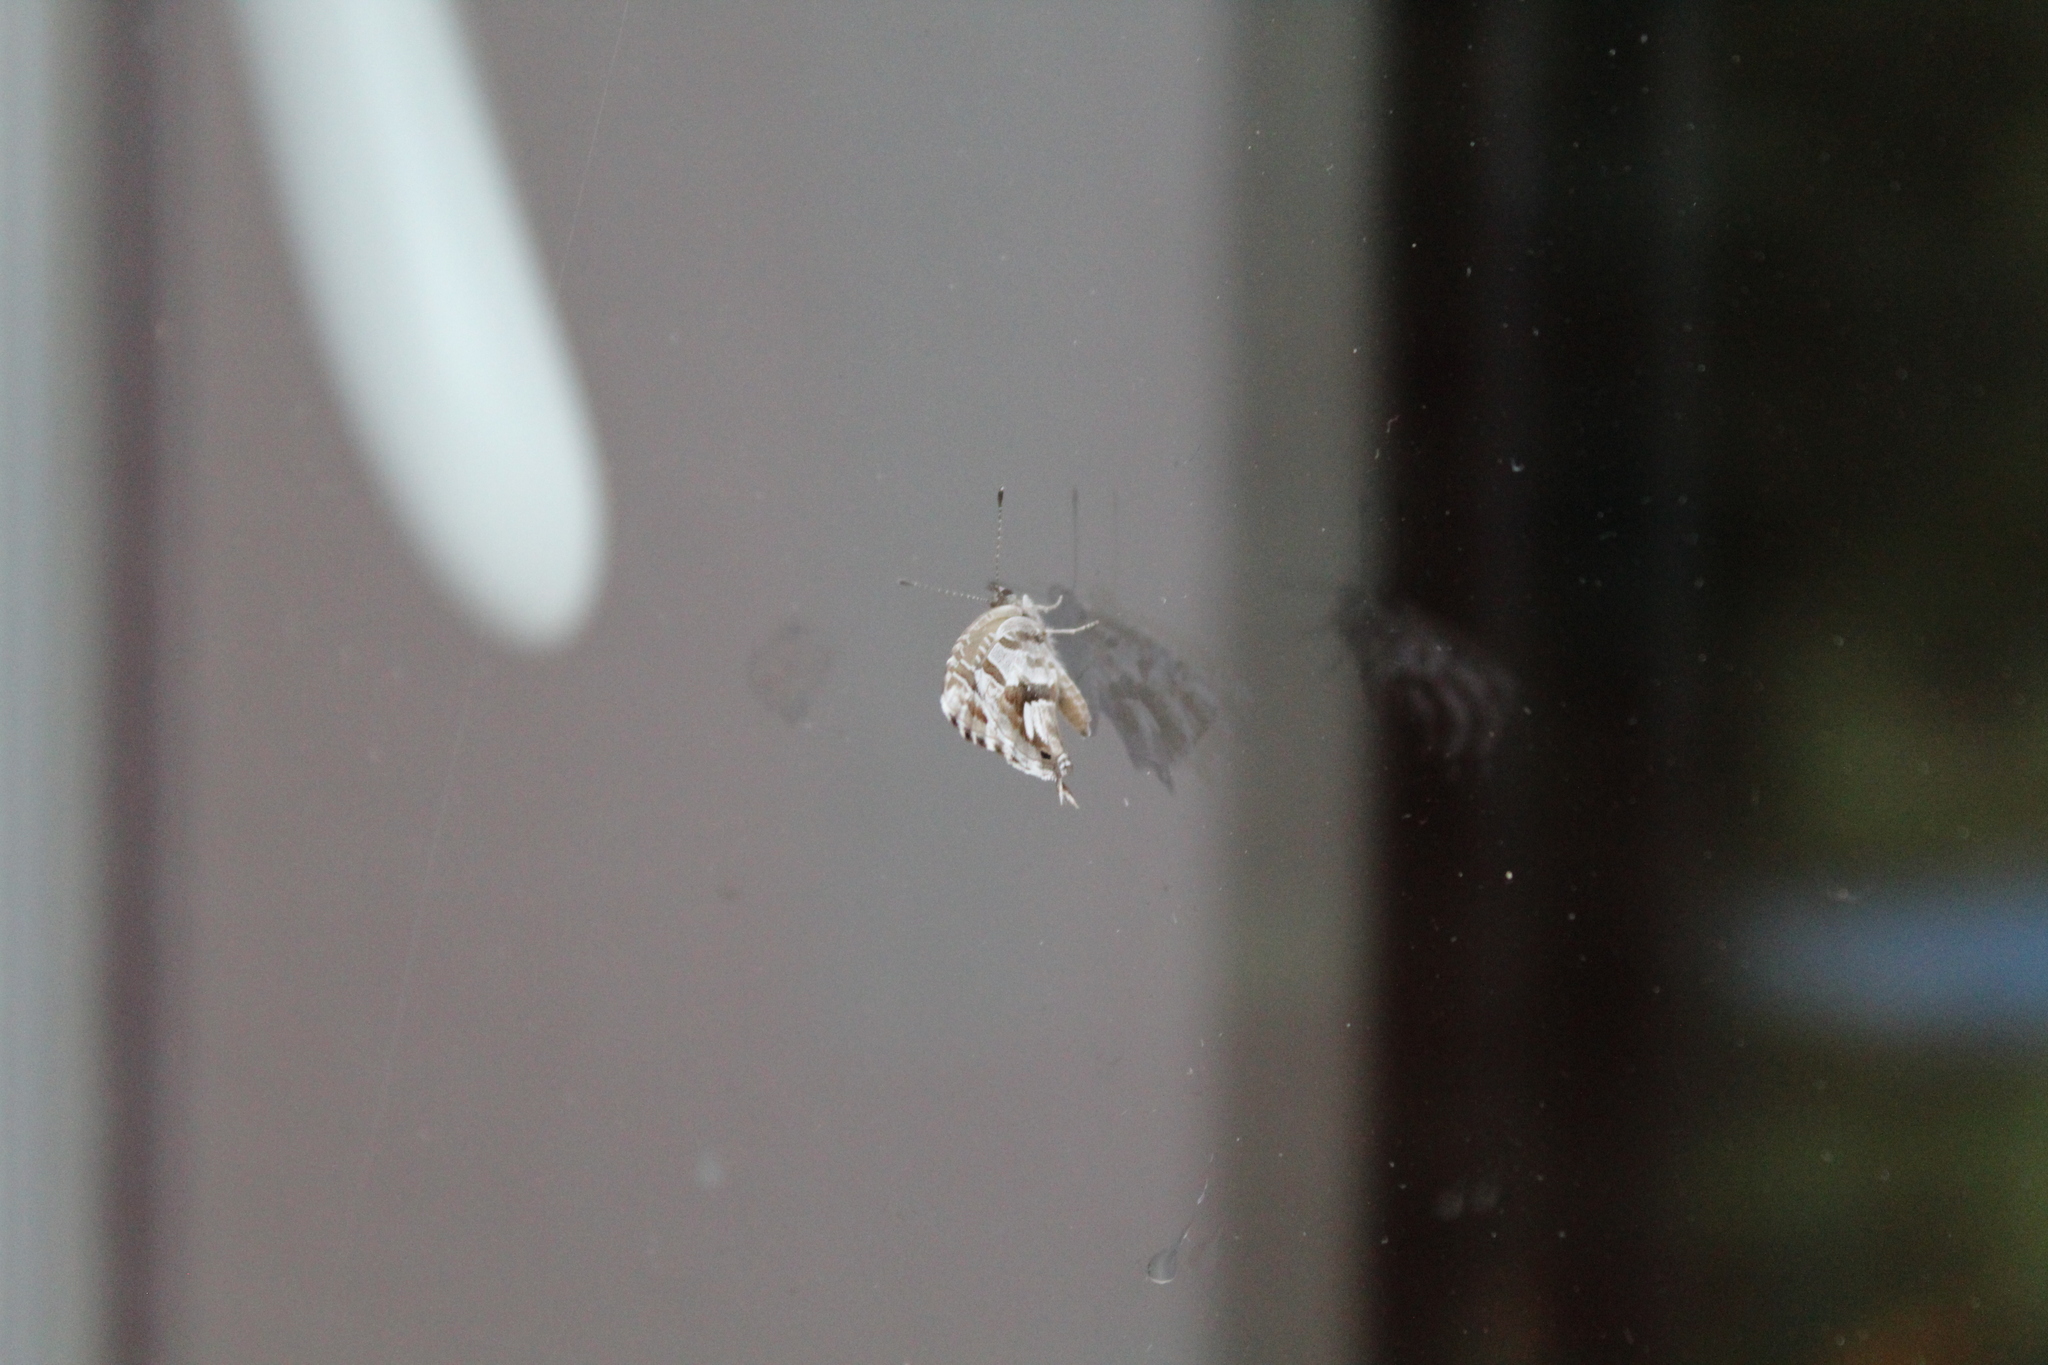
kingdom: Animalia
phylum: Arthropoda
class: Insecta
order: Lepidoptera
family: Lycaenidae
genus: Cacyreus
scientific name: Cacyreus marshalli
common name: Geranium bronze
